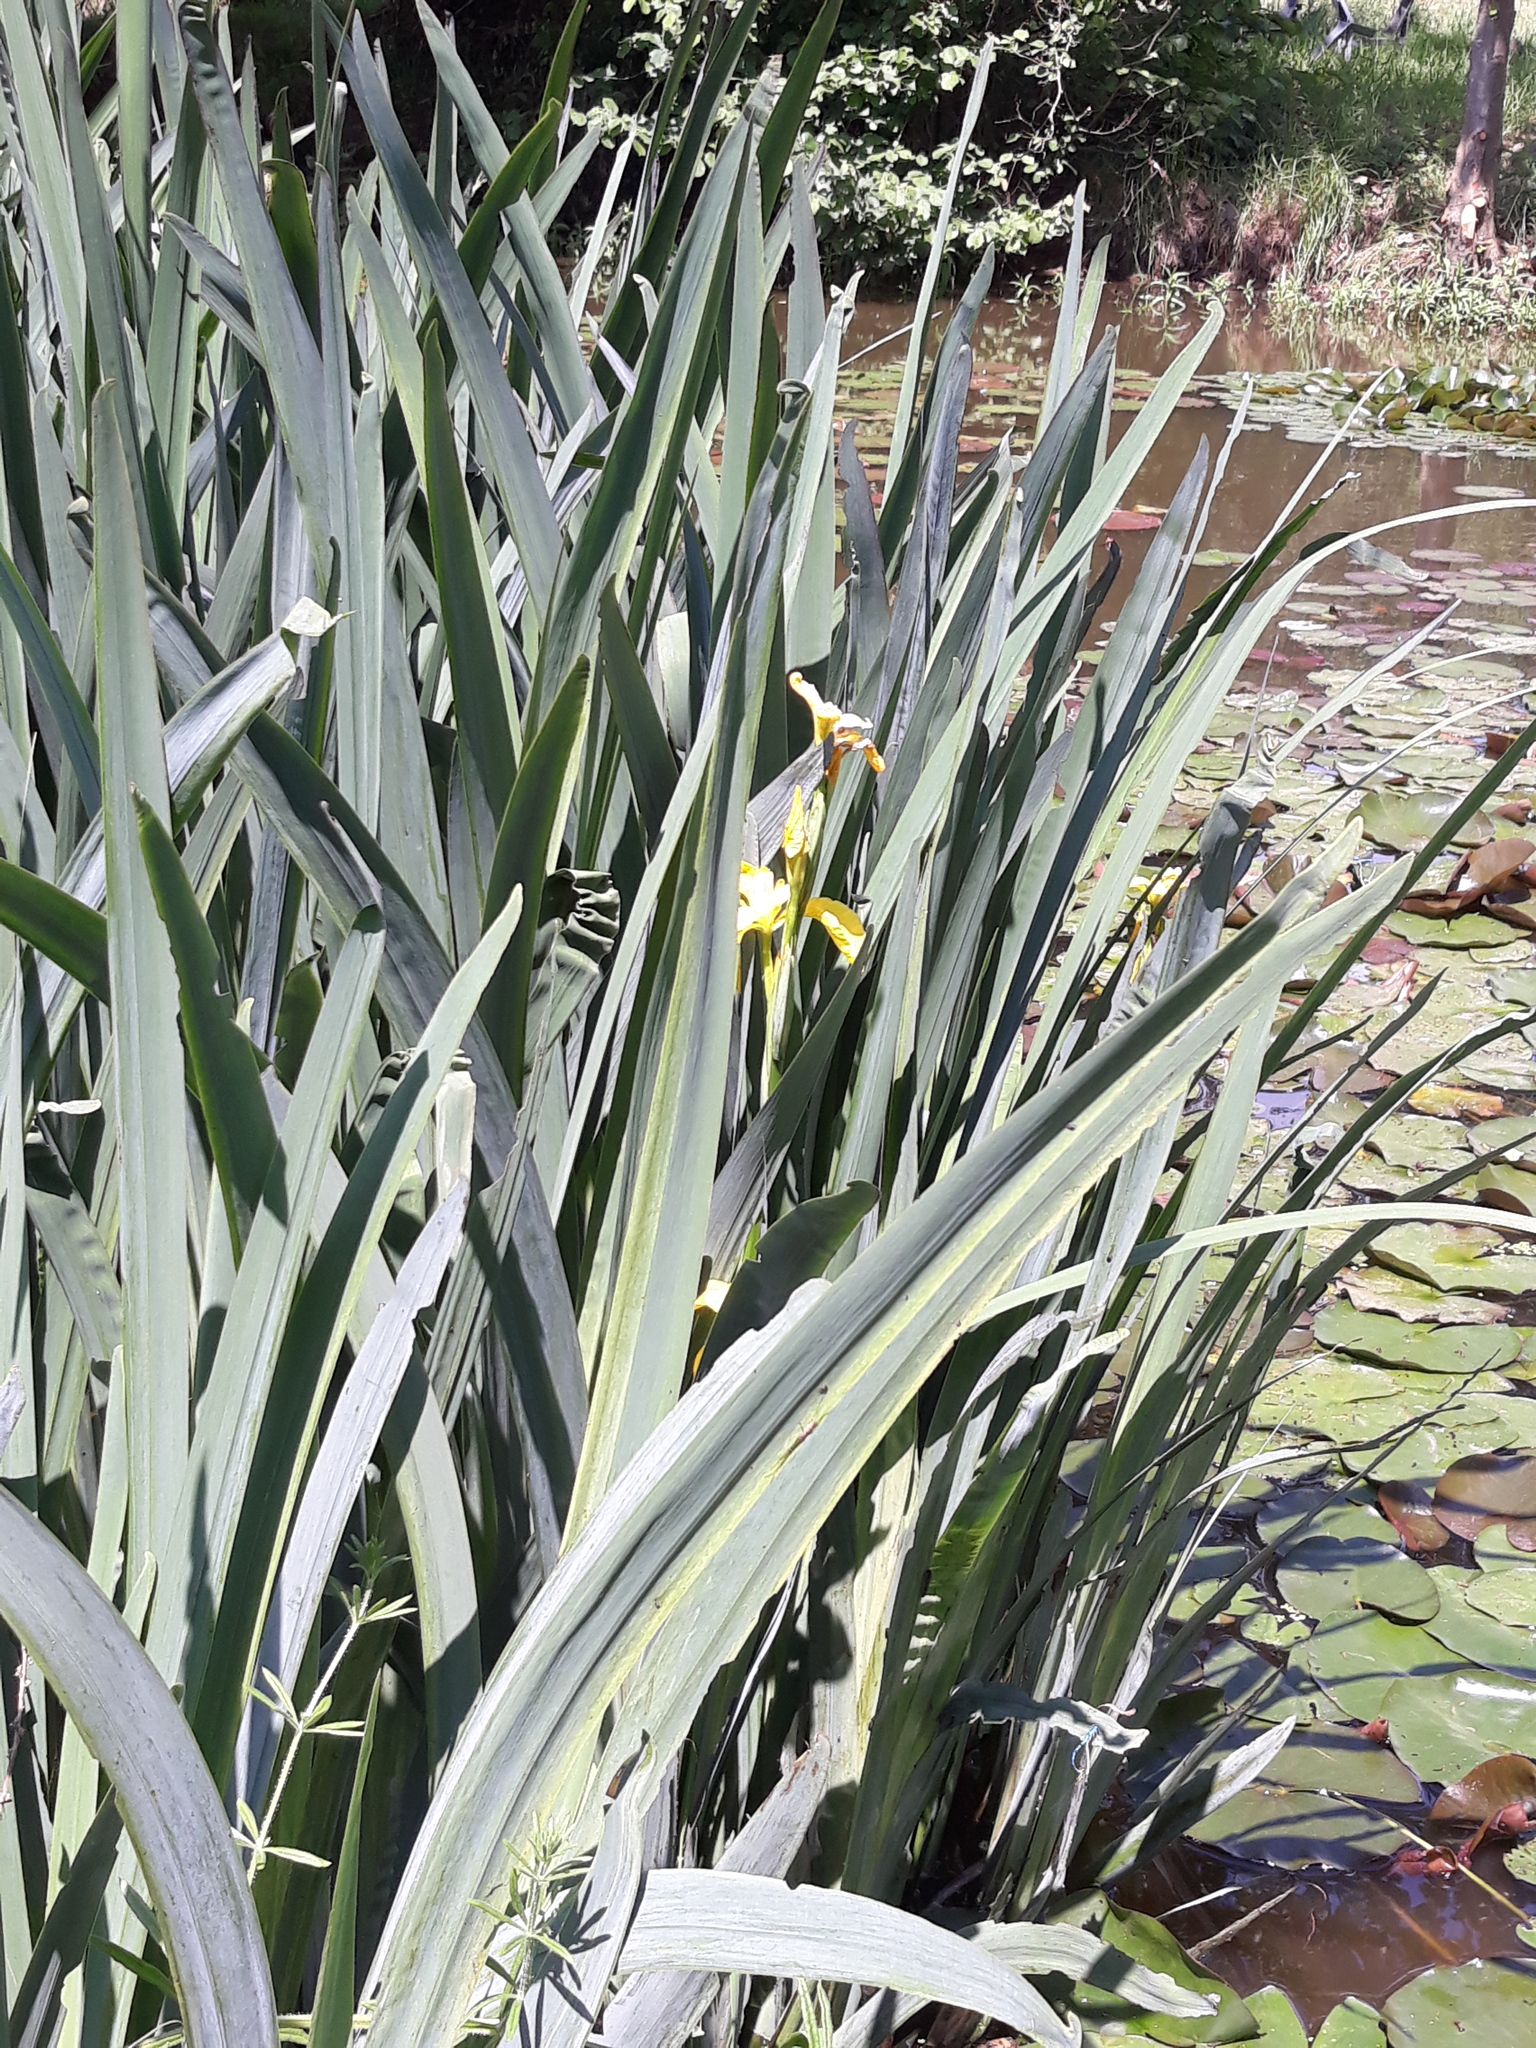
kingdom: Plantae
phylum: Tracheophyta
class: Liliopsida
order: Asparagales
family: Iridaceae
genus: Iris
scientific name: Iris pseudacorus
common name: Yellow flag
